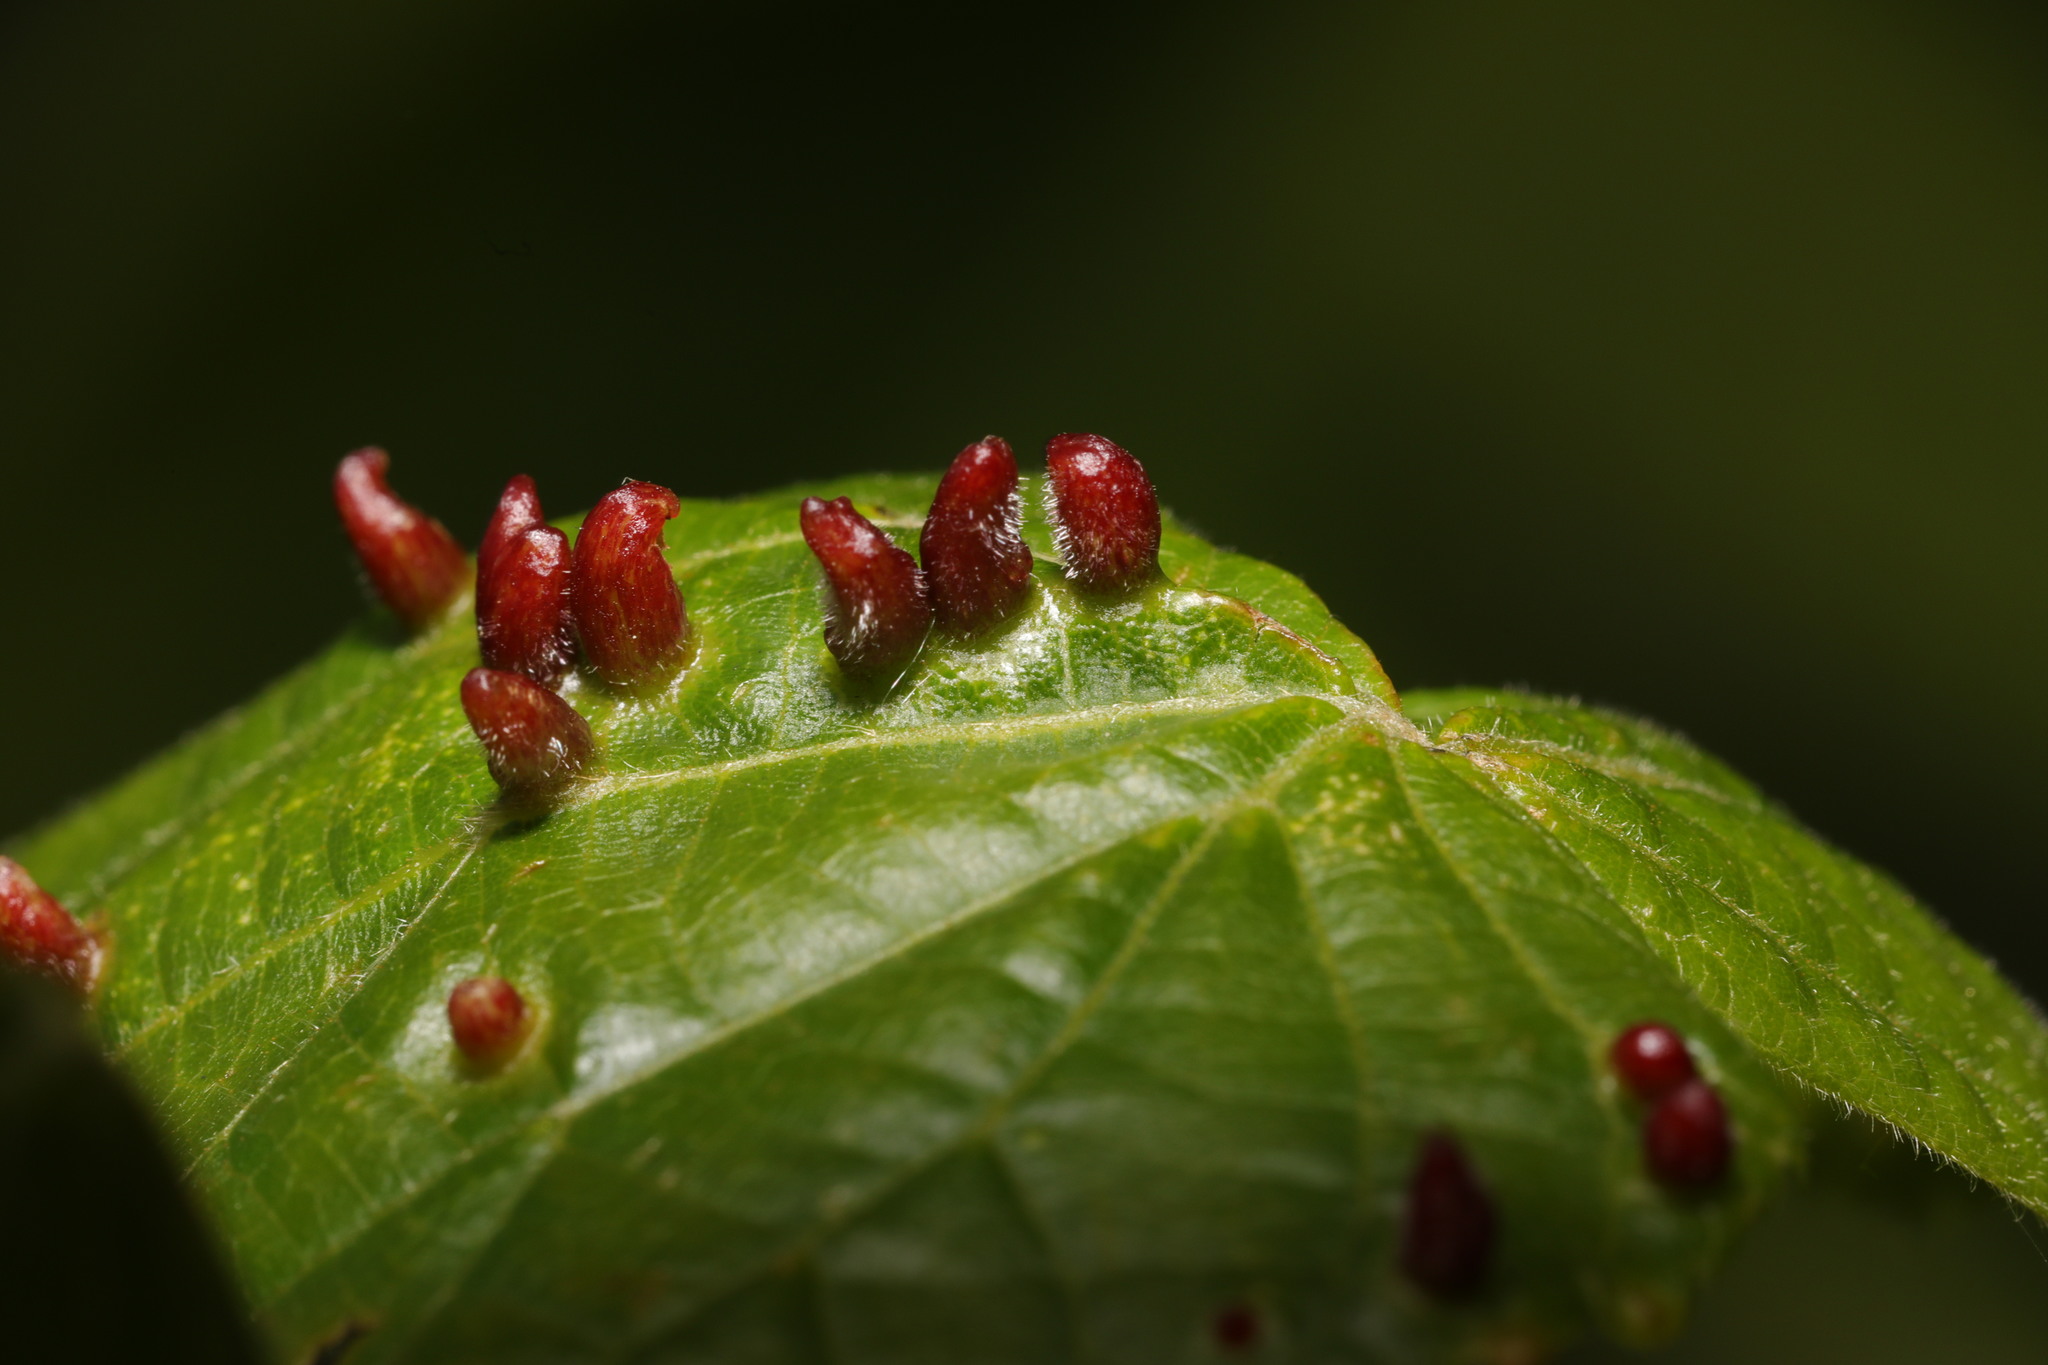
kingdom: Animalia
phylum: Arthropoda
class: Arachnida
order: Trombidiformes
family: Eriophyidae
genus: Eriophyes
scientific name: Eriophyes tiliae
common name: Red nail gall mite
